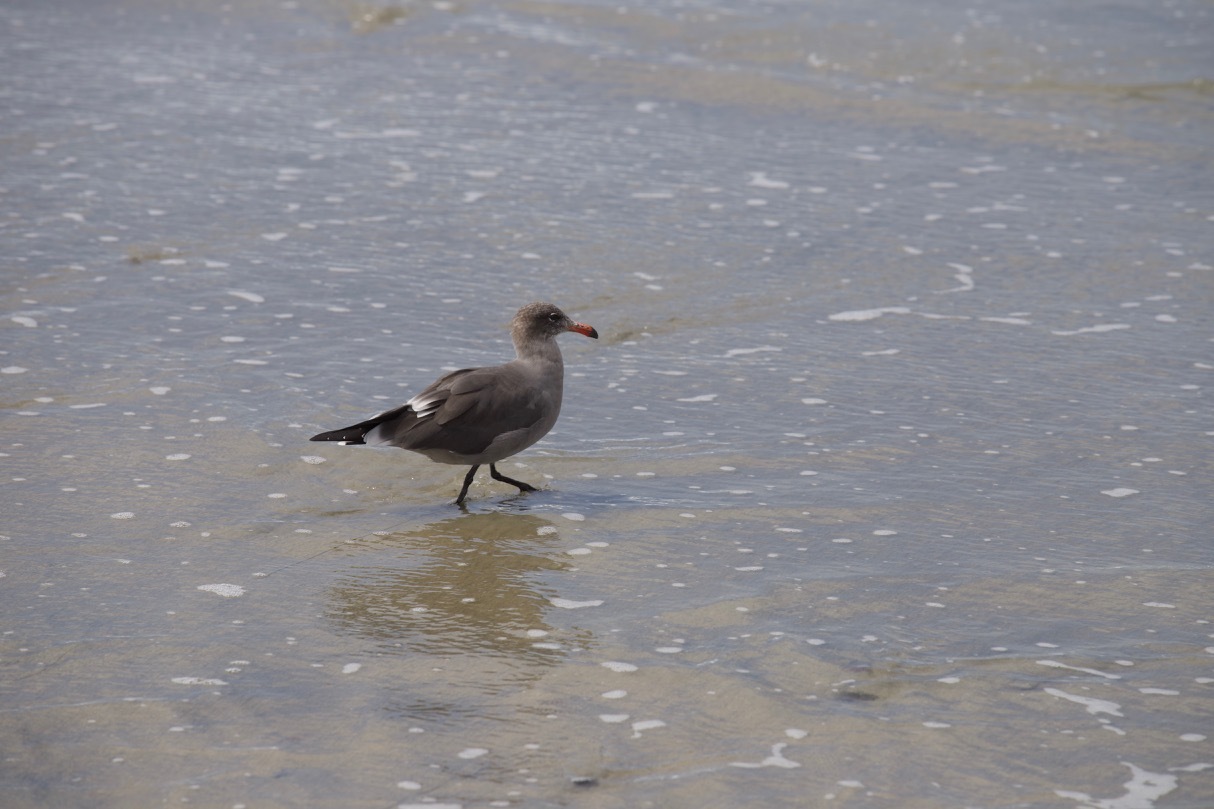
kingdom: Animalia
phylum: Chordata
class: Aves
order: Charadriiformes
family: Laridae
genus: Larus
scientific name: Larus heermanni
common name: Heermann's gull
